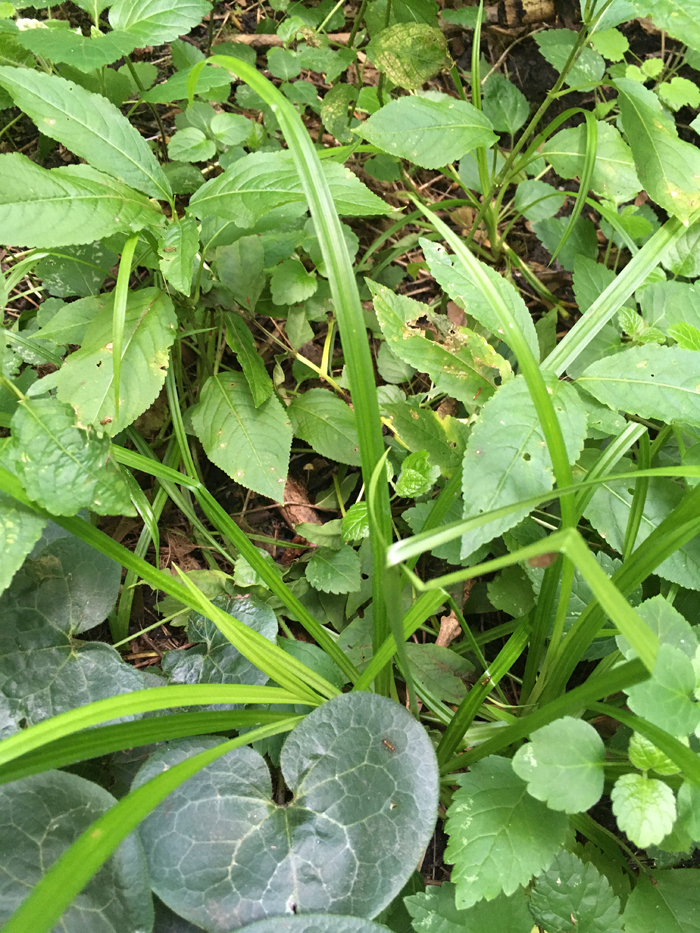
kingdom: Plantae
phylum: Tracheophyta
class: Liliopsida
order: Poales
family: Cyperaceae
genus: Carex
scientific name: Carex pilosa
